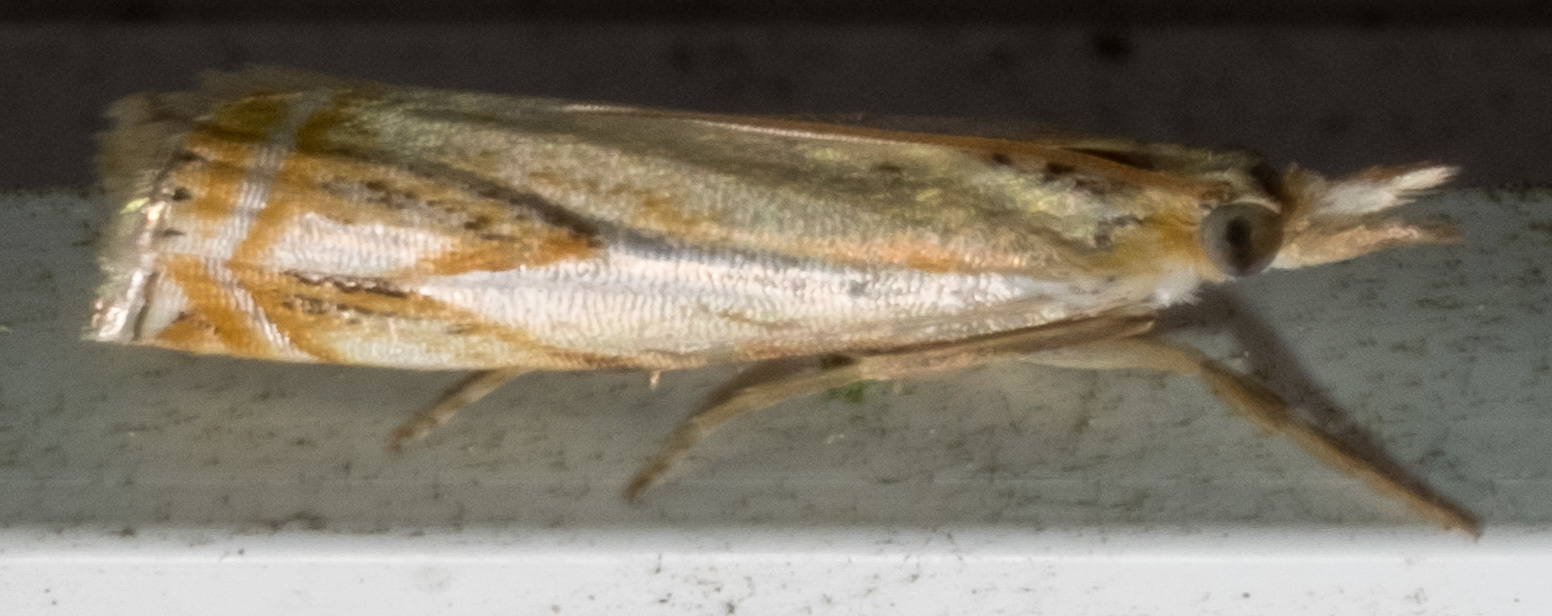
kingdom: Animalia
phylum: Arthropoda
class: Insecta
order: Lepidoptera
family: Crambidae
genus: Crambus
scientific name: Crambus agitatellus
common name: Double-banded grass-veneer
